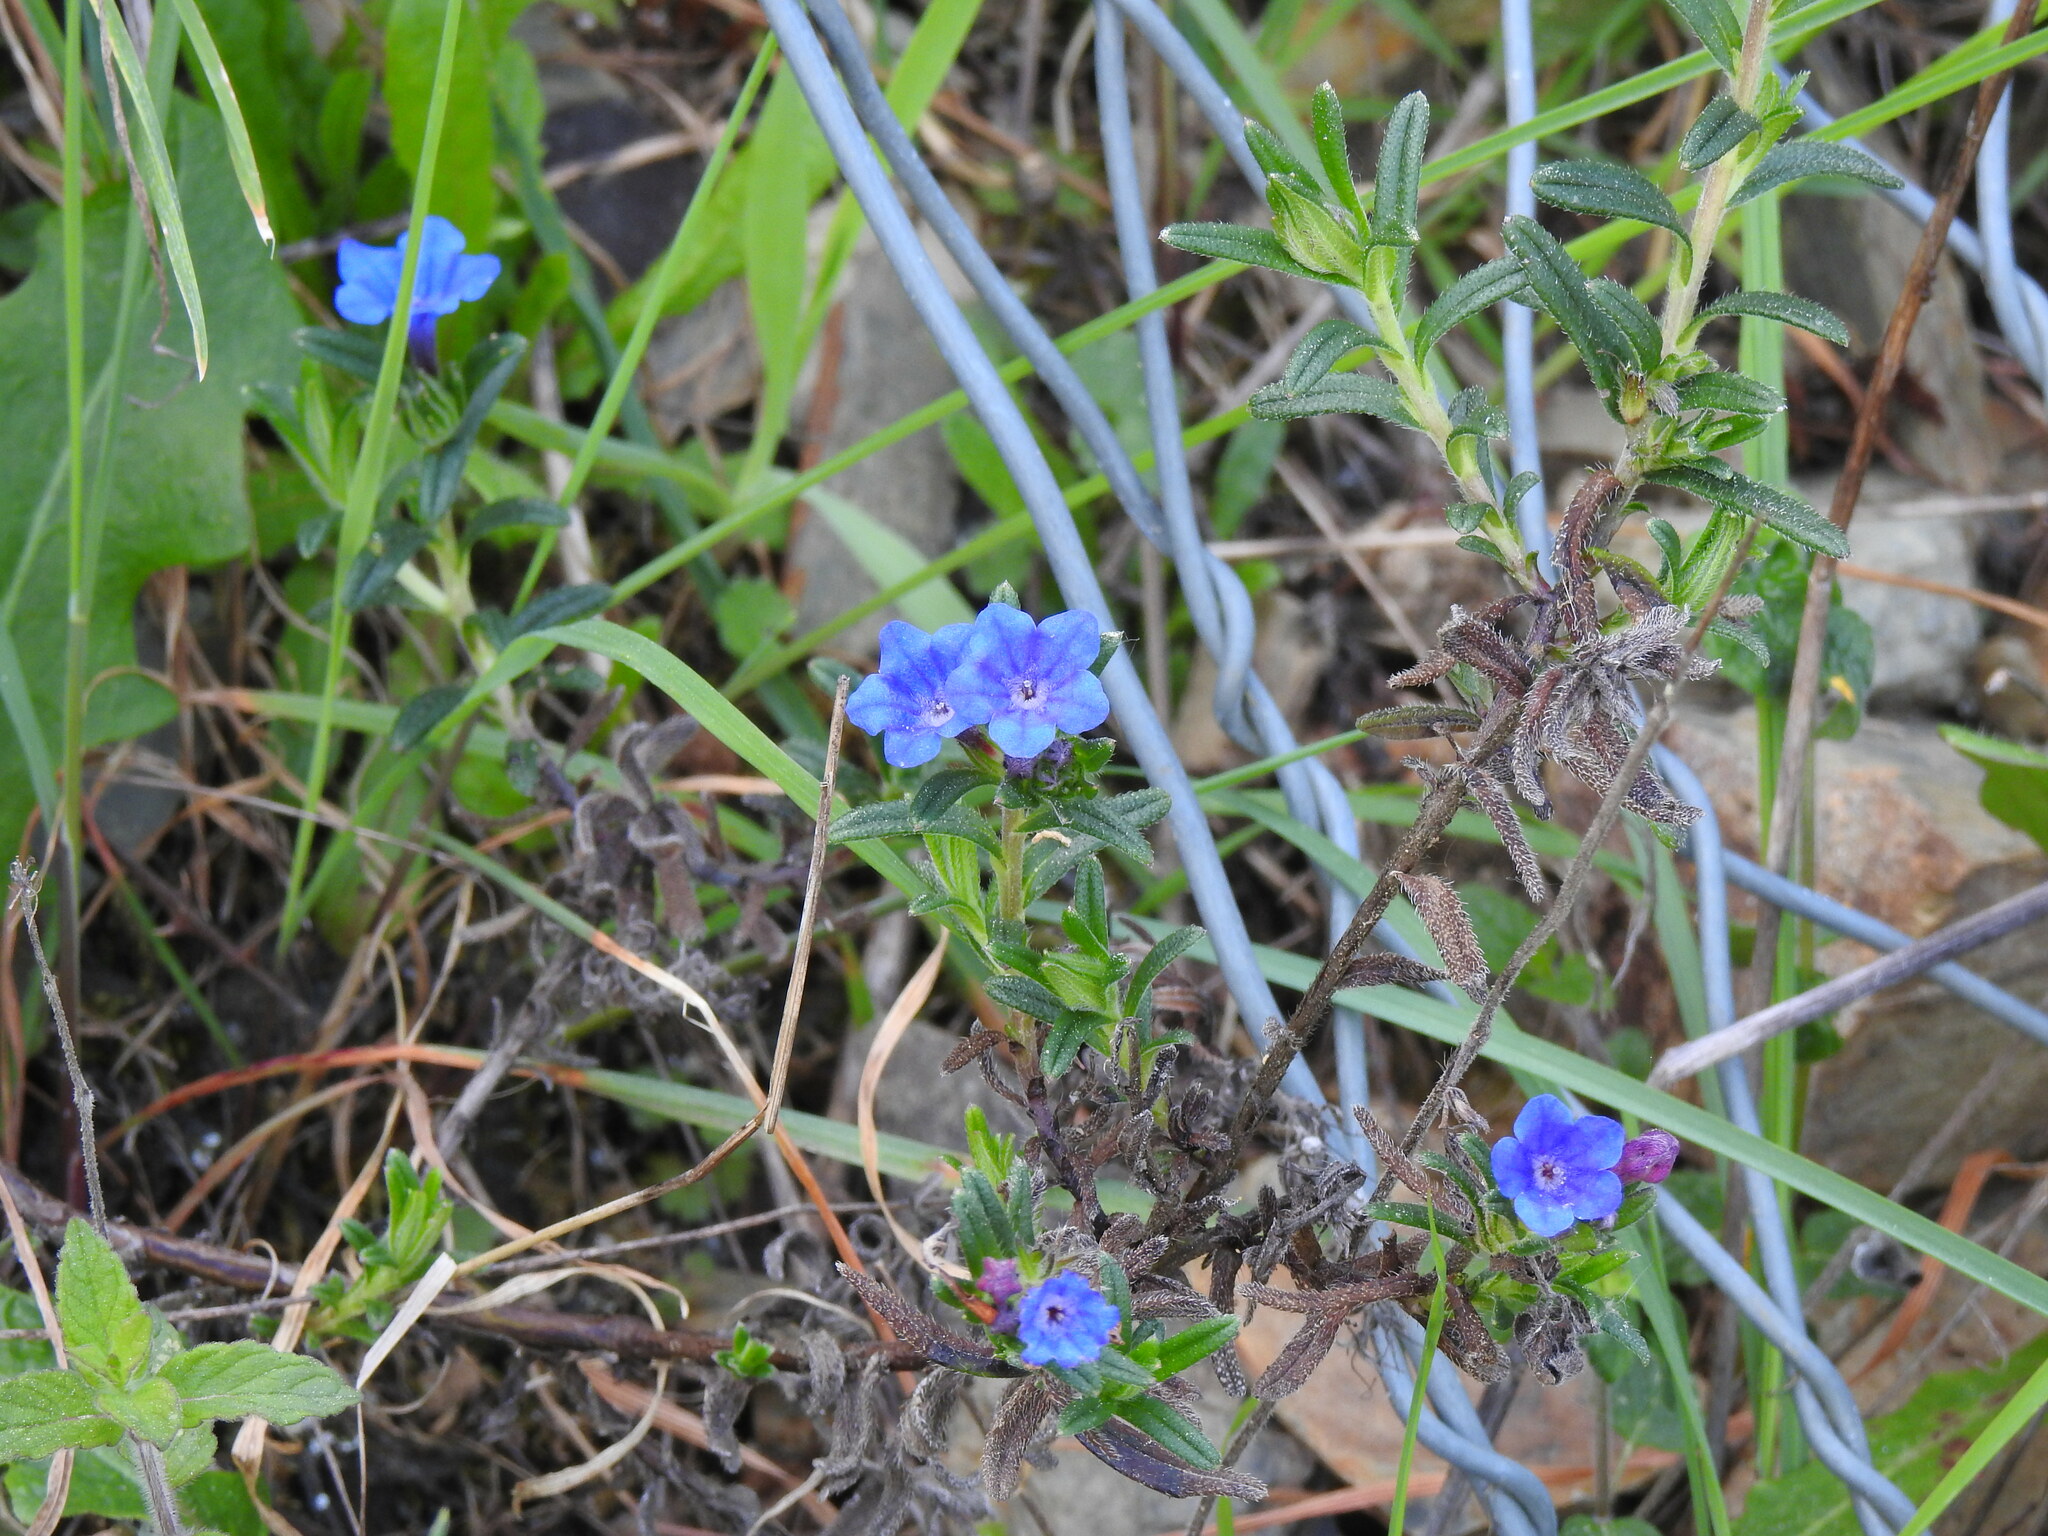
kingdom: Plantae
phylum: Tracheophyta
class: Magnoliopsida
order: Boraginales
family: Boraginaceae
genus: Glandora
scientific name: Glandora prostrata
